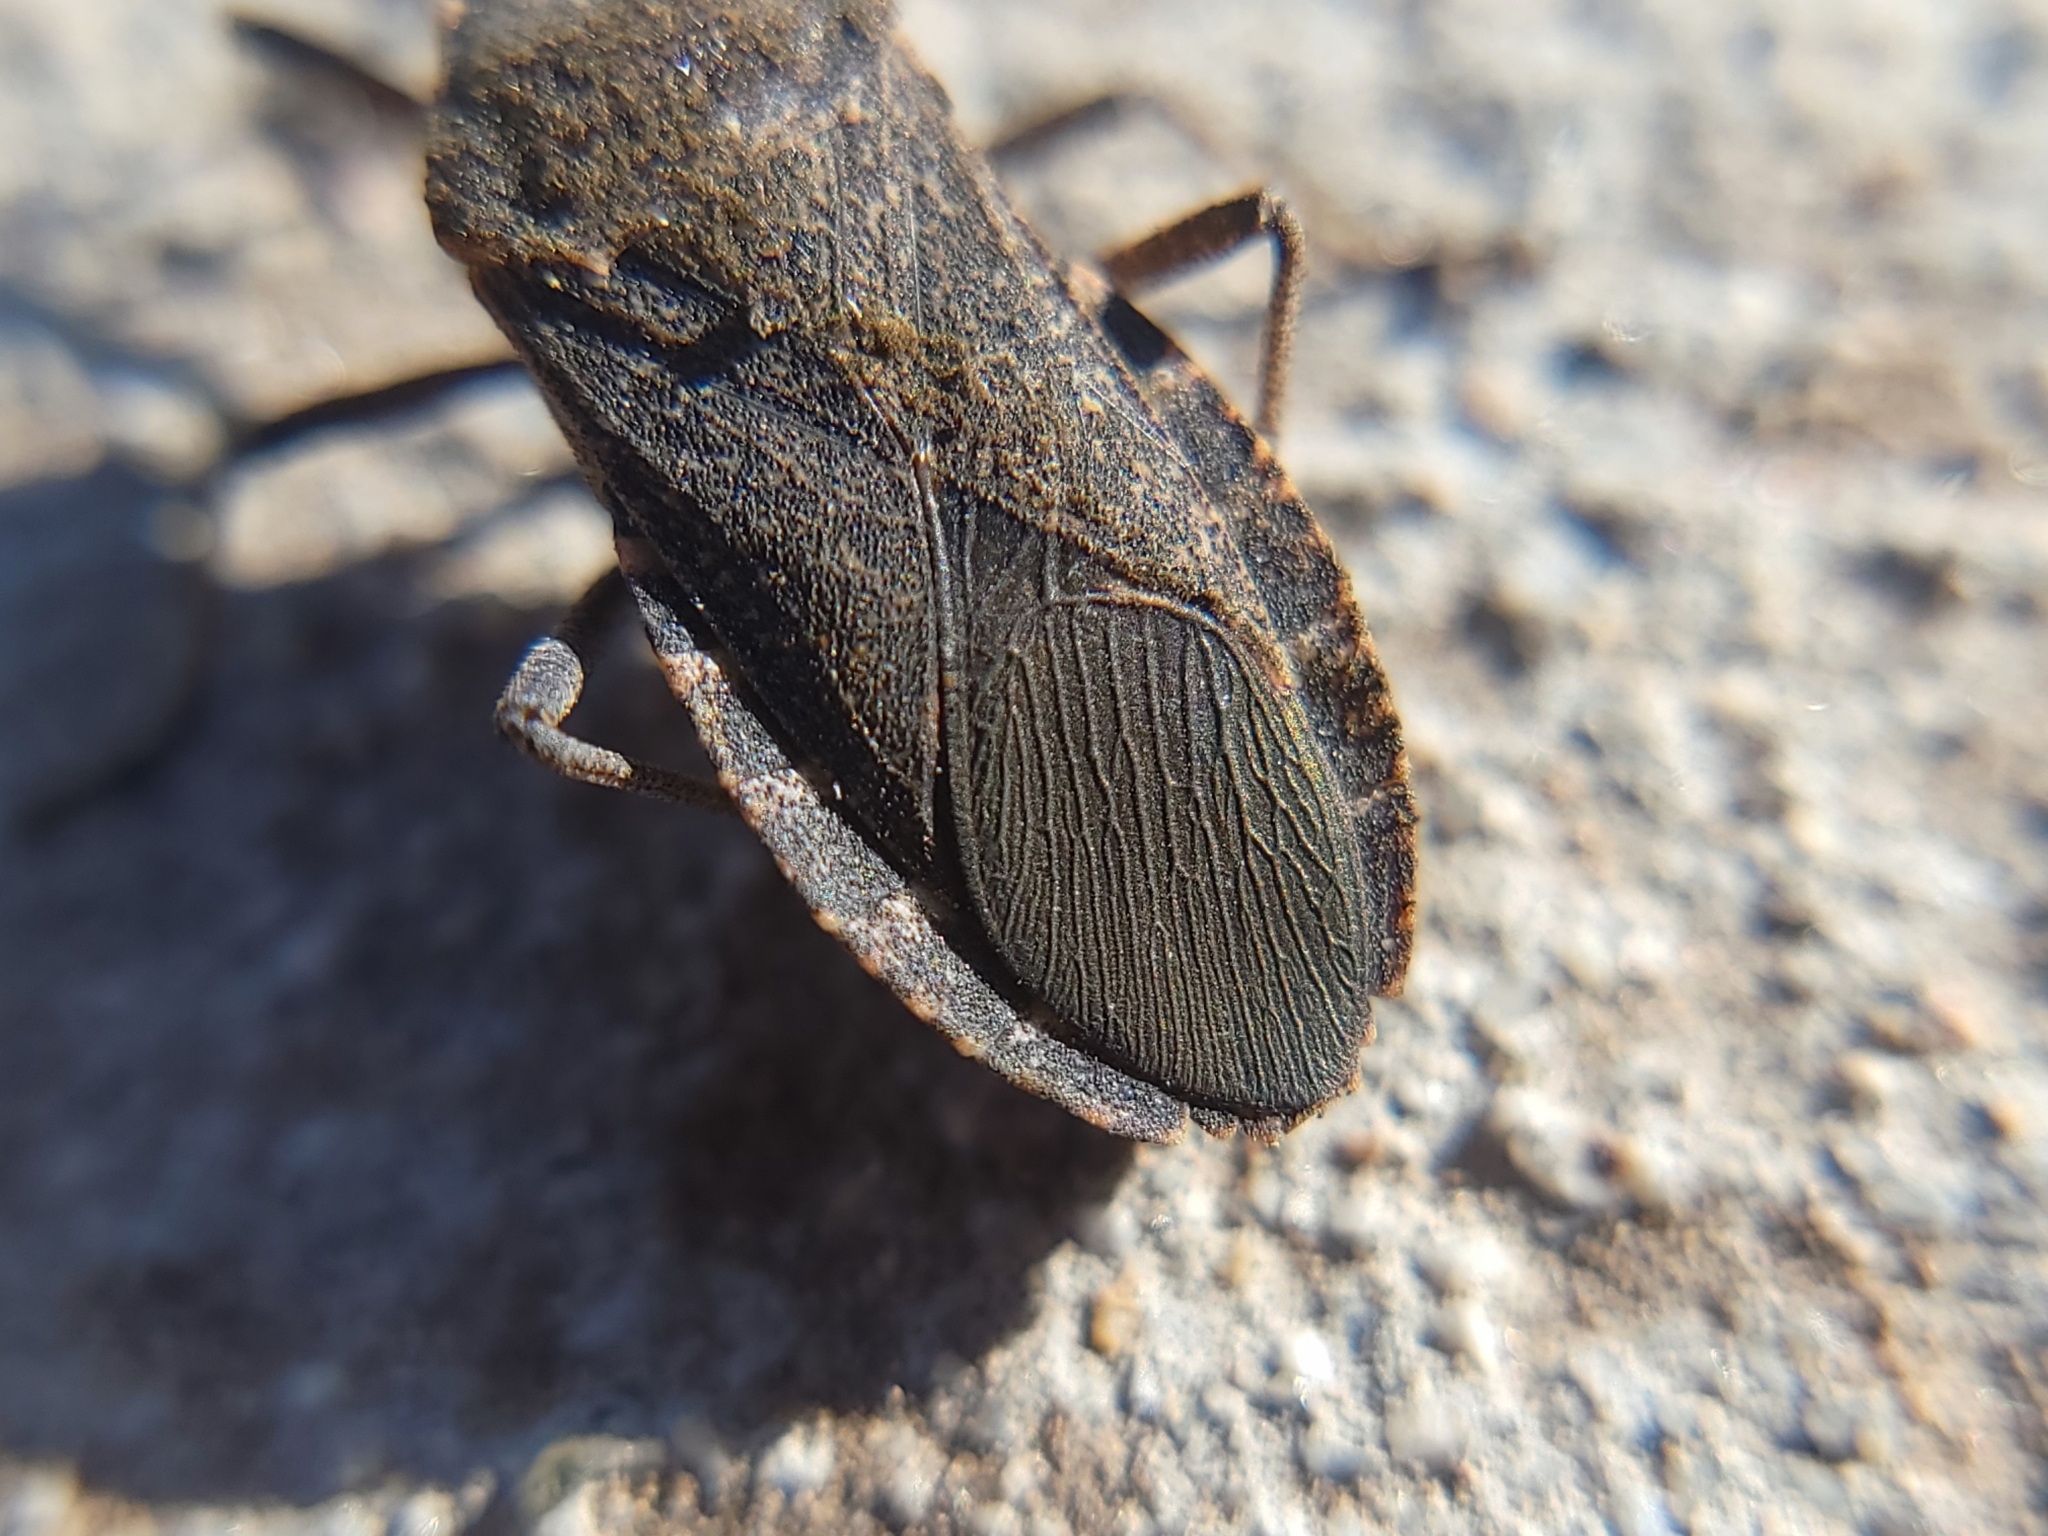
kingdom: Animalia
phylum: Arthropoda
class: Insecta
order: Hemiptera
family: Coreidae
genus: Anasa
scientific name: Anasa tristis
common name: Squash bug
